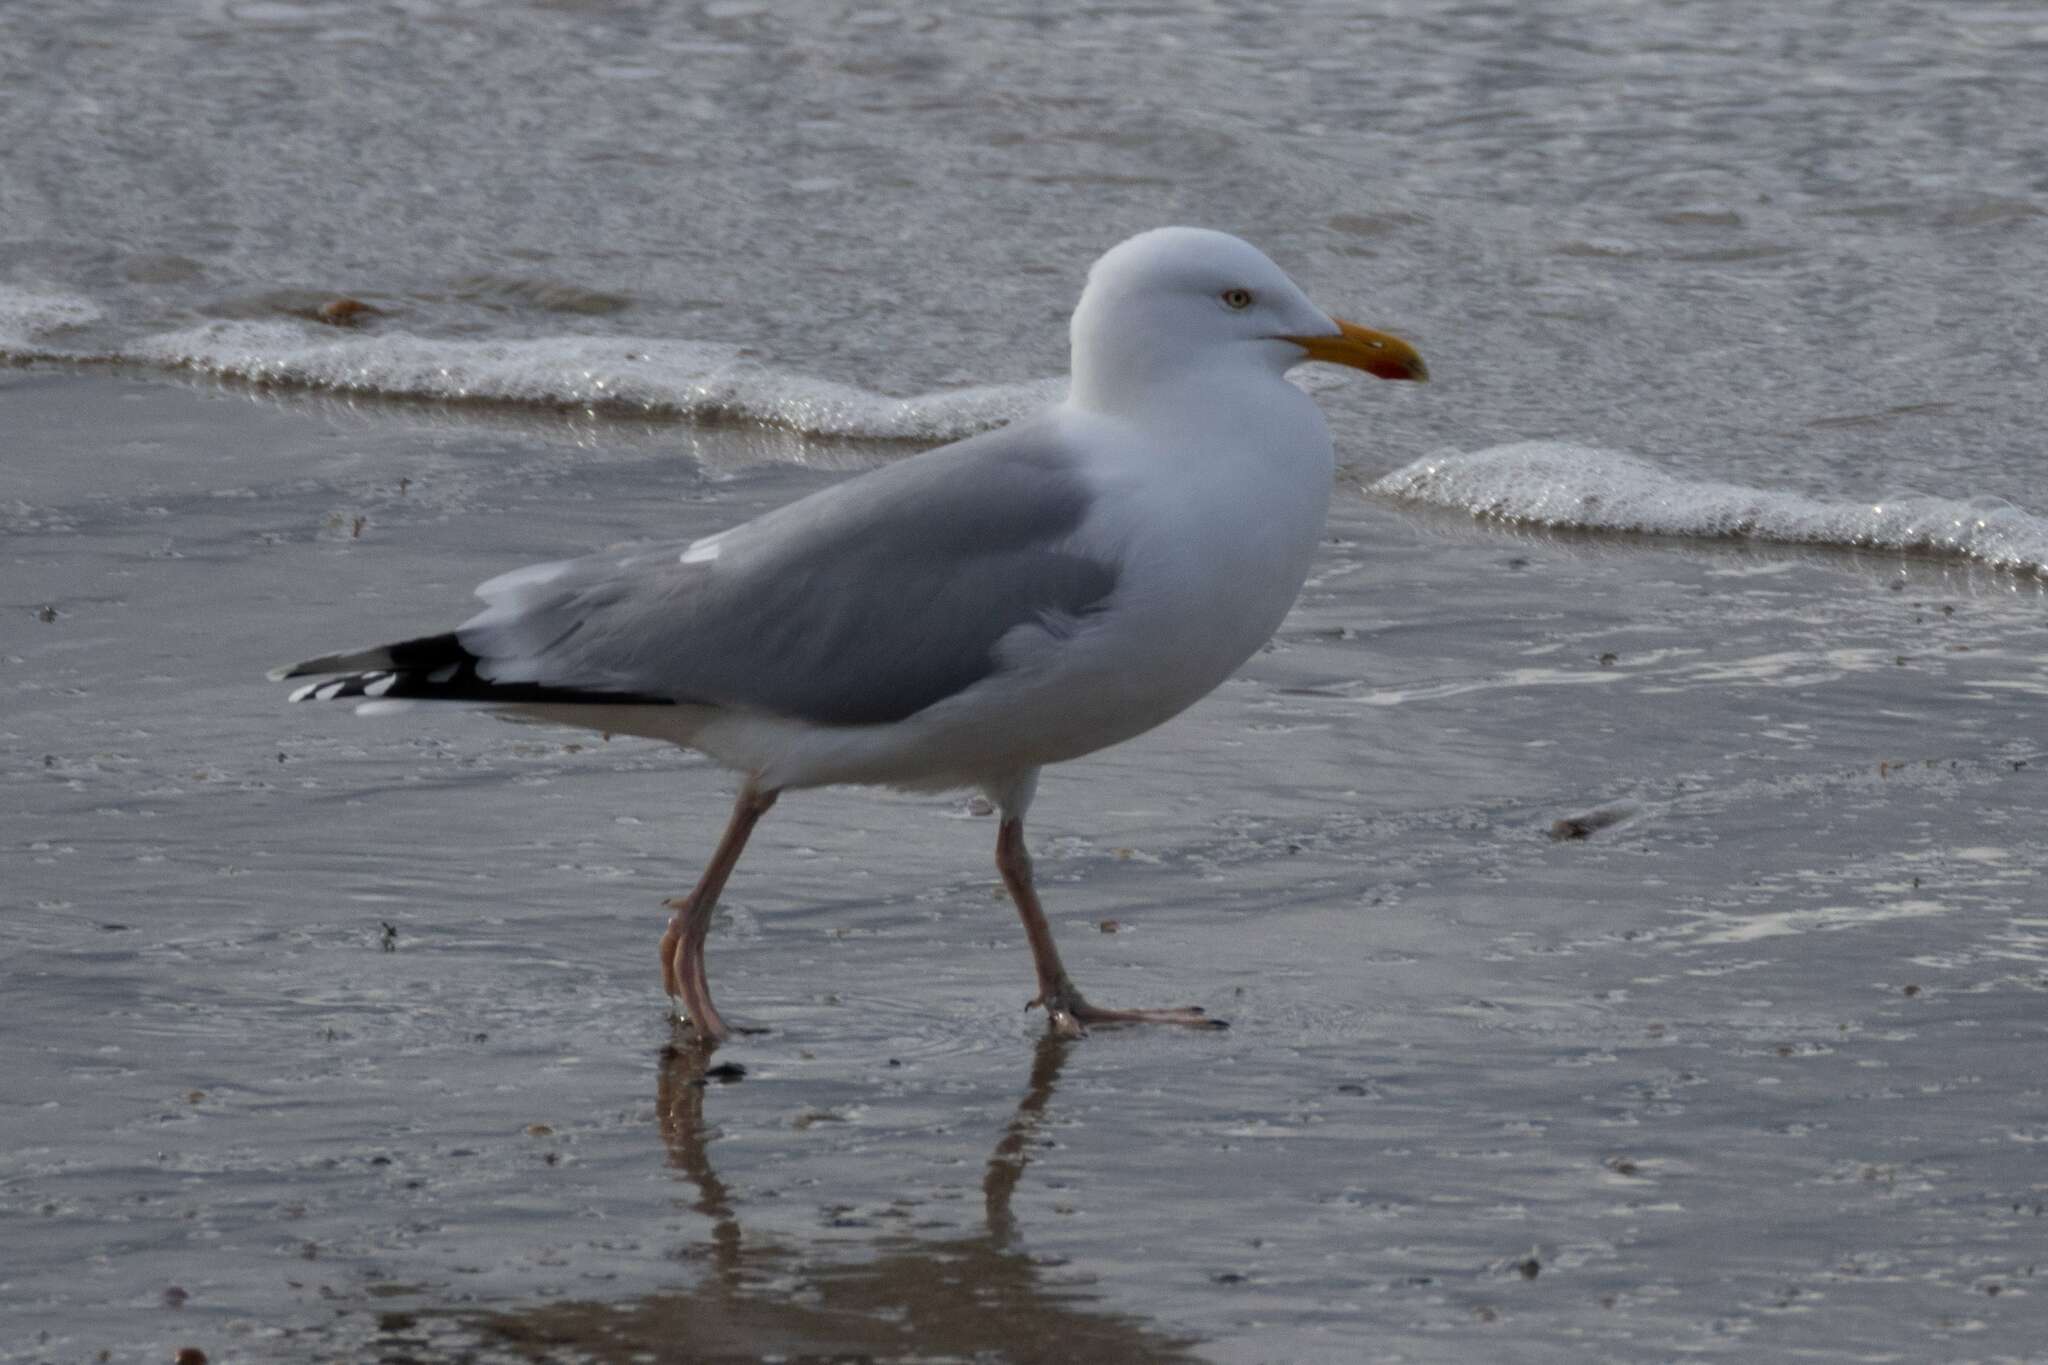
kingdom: Animalia
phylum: Chordata
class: Aves
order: Charadriiformes
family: Laridae
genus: Larus
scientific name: Larus argentatus
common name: Herring gull
